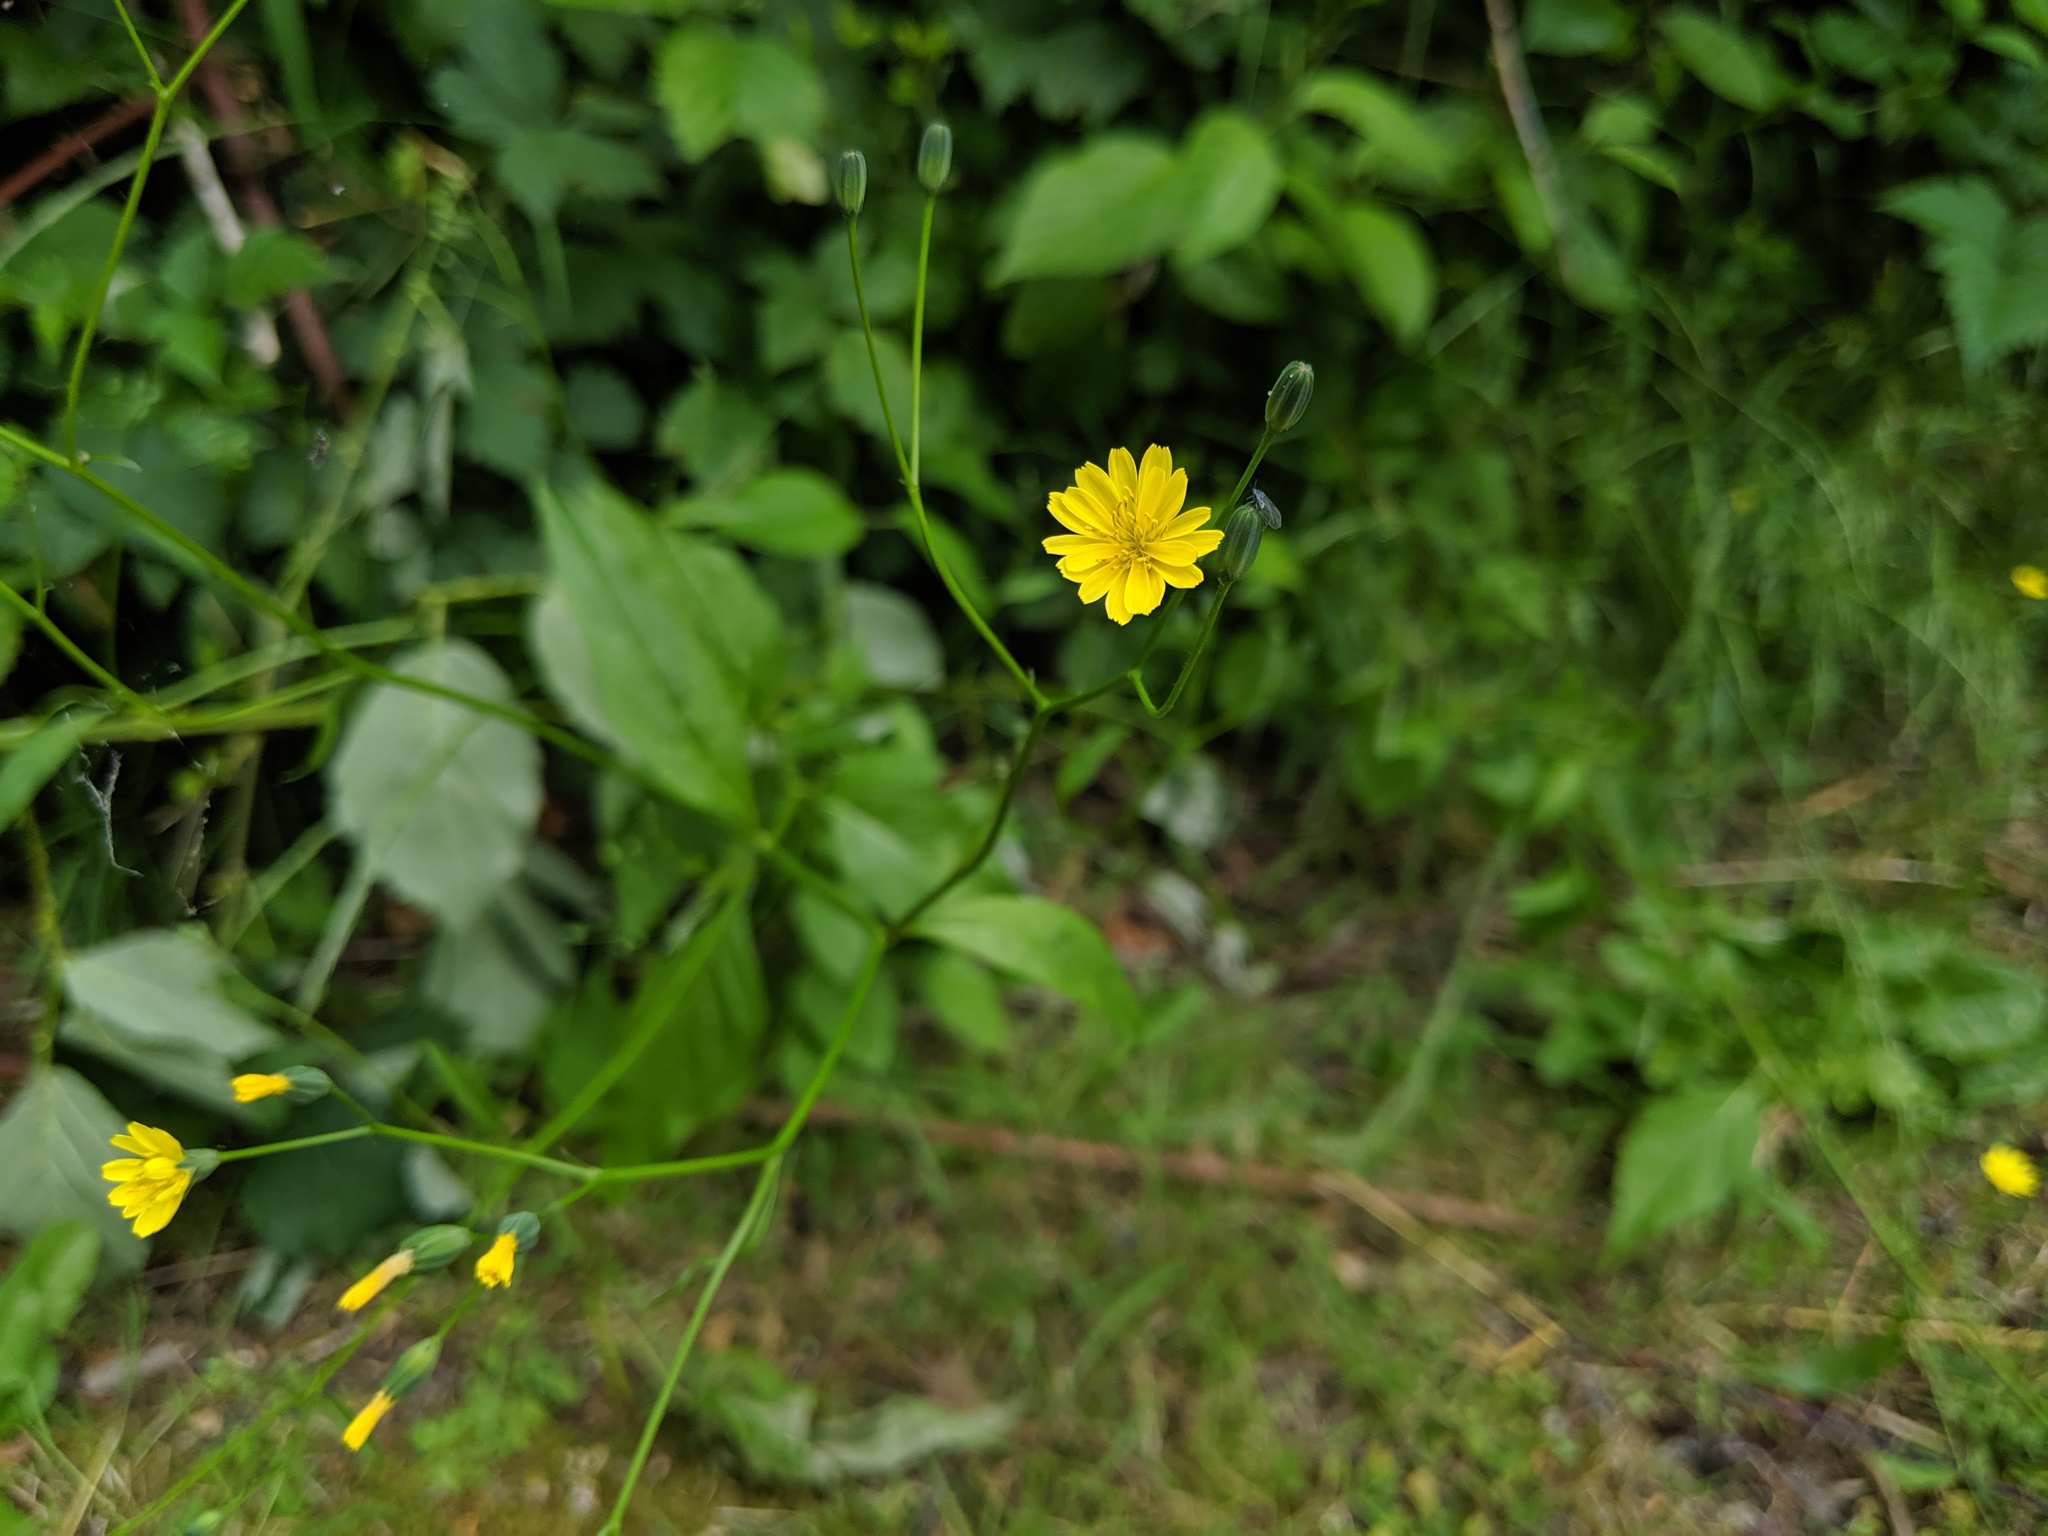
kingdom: Plantae
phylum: Tracheophyta
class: Magnoliopsida
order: Asterales
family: Asteraceae
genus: Lapsana
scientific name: Lapsana communis
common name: Nipplewort
